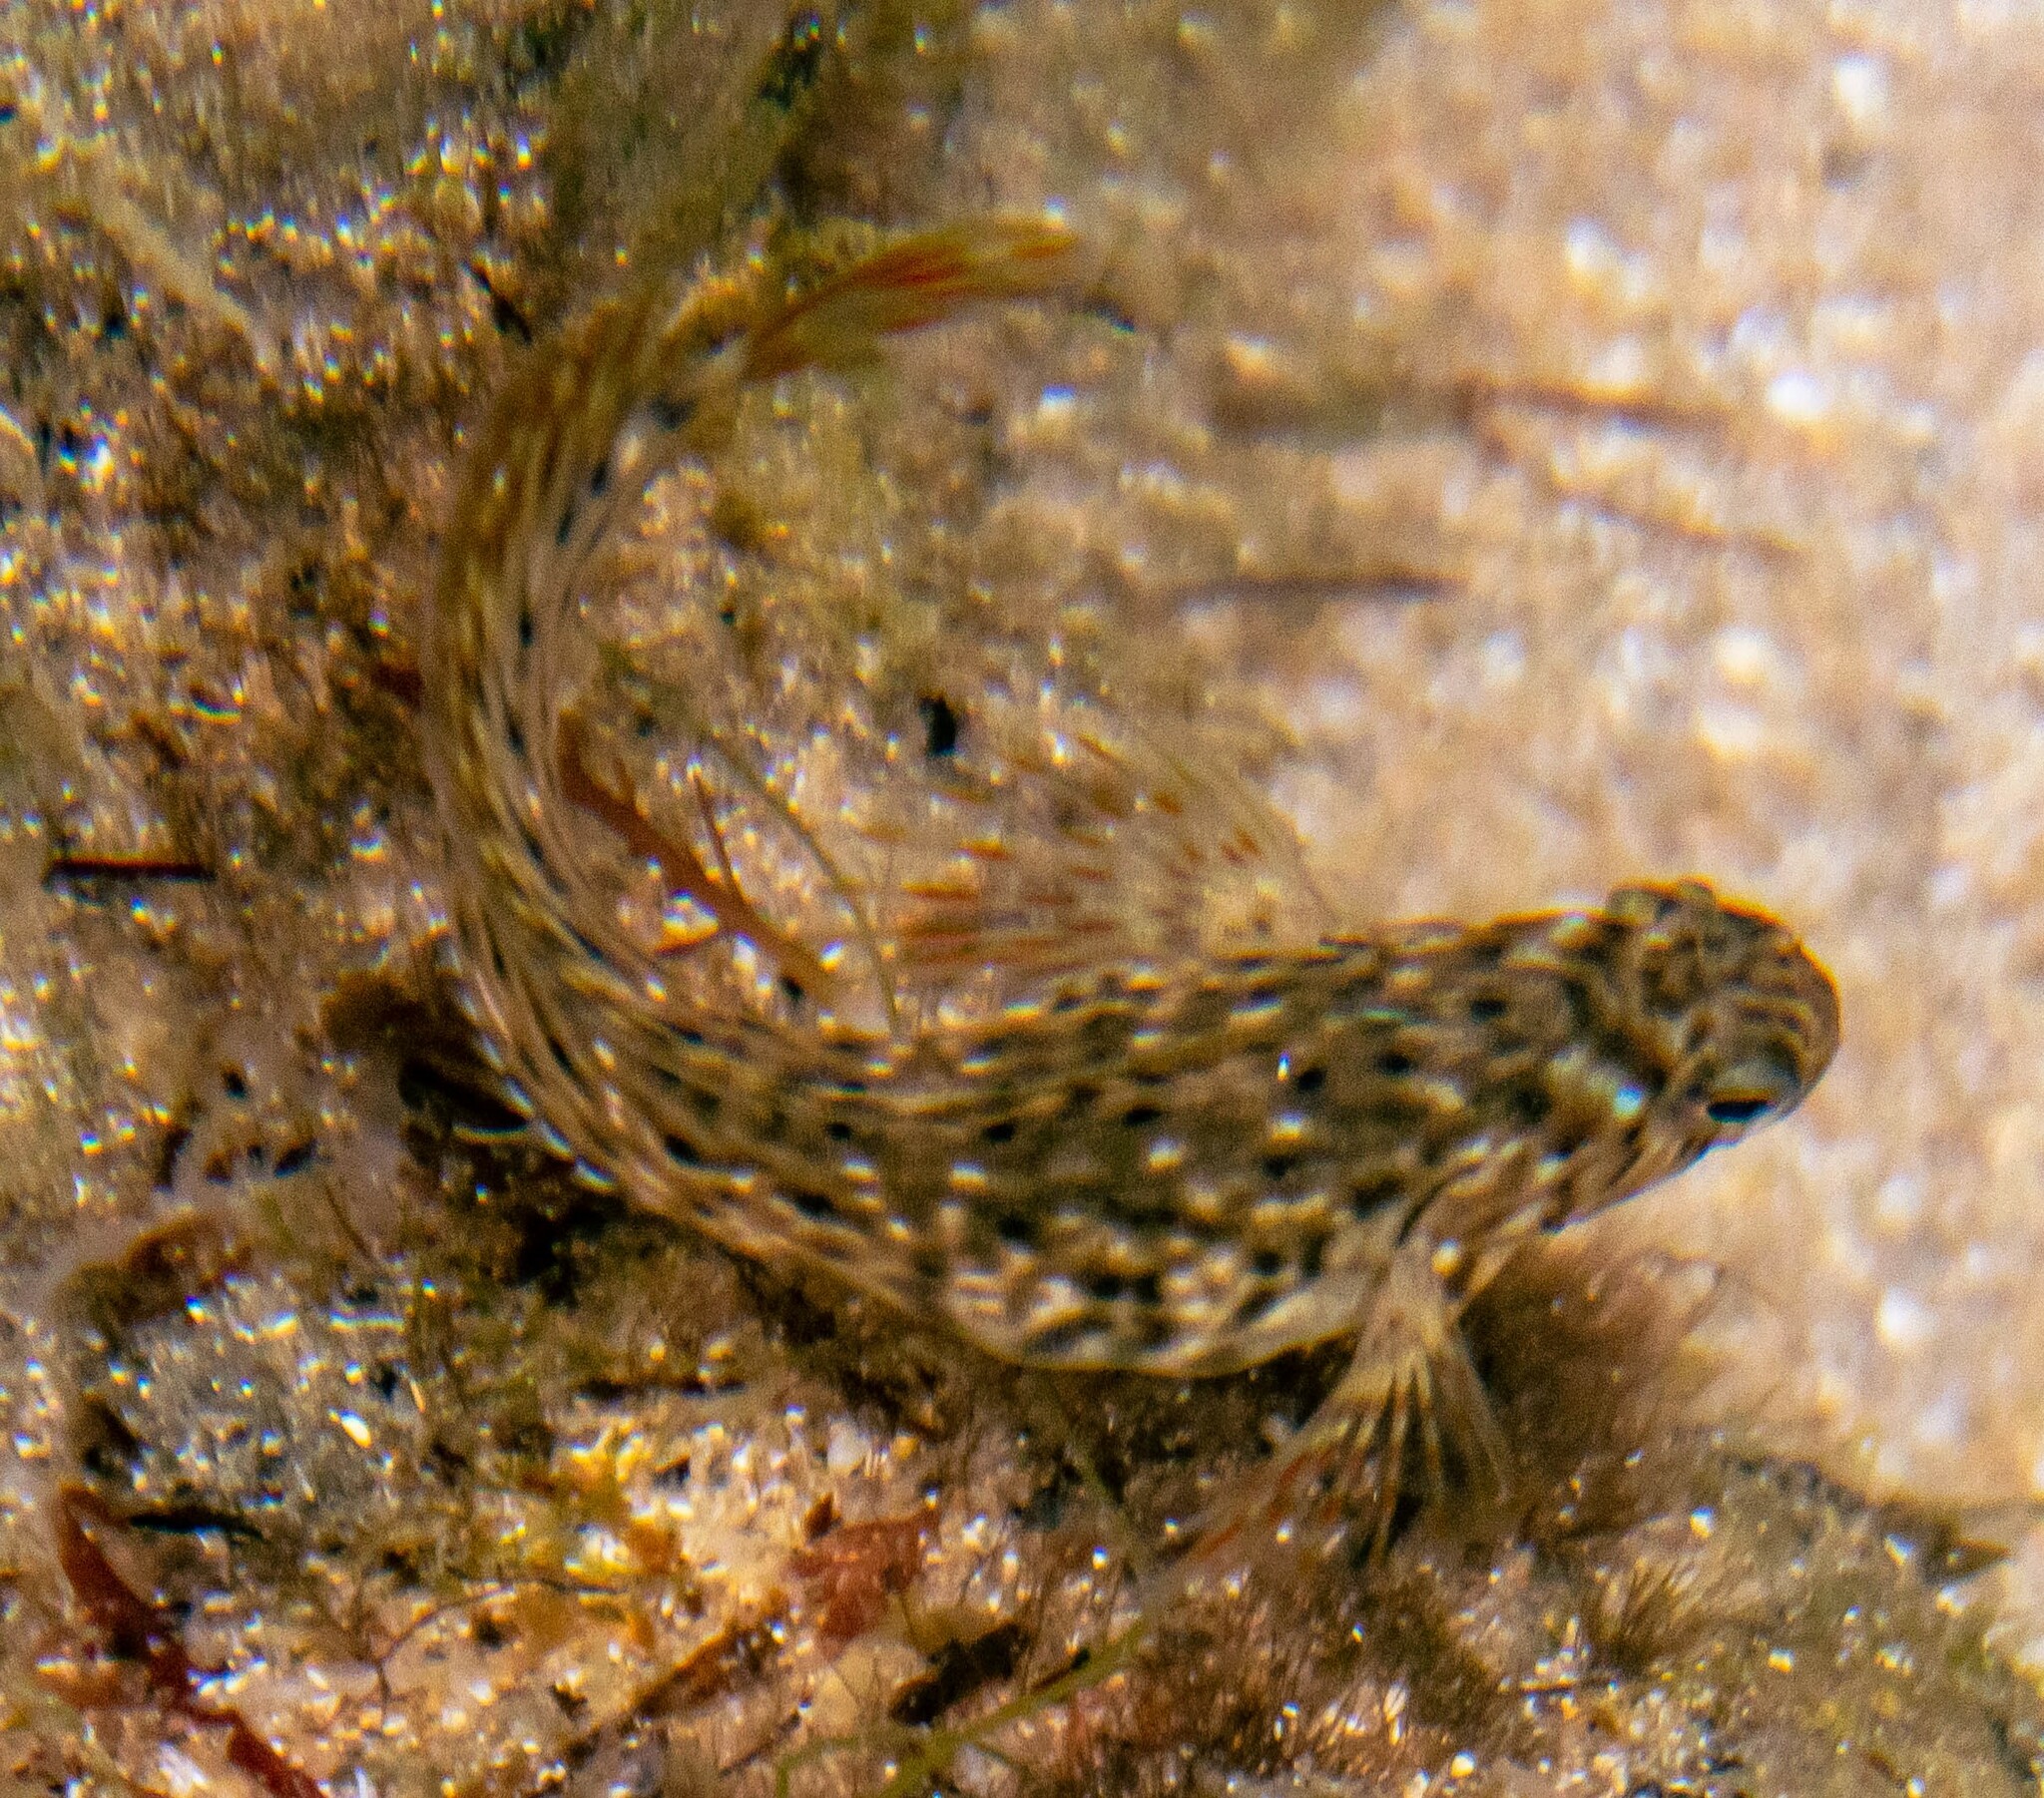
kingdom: Animalia
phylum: Chordata
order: Perciformes
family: Blenniidae
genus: Parablennius
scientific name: Parablennius sanguinolentus
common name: Black sea blenny
